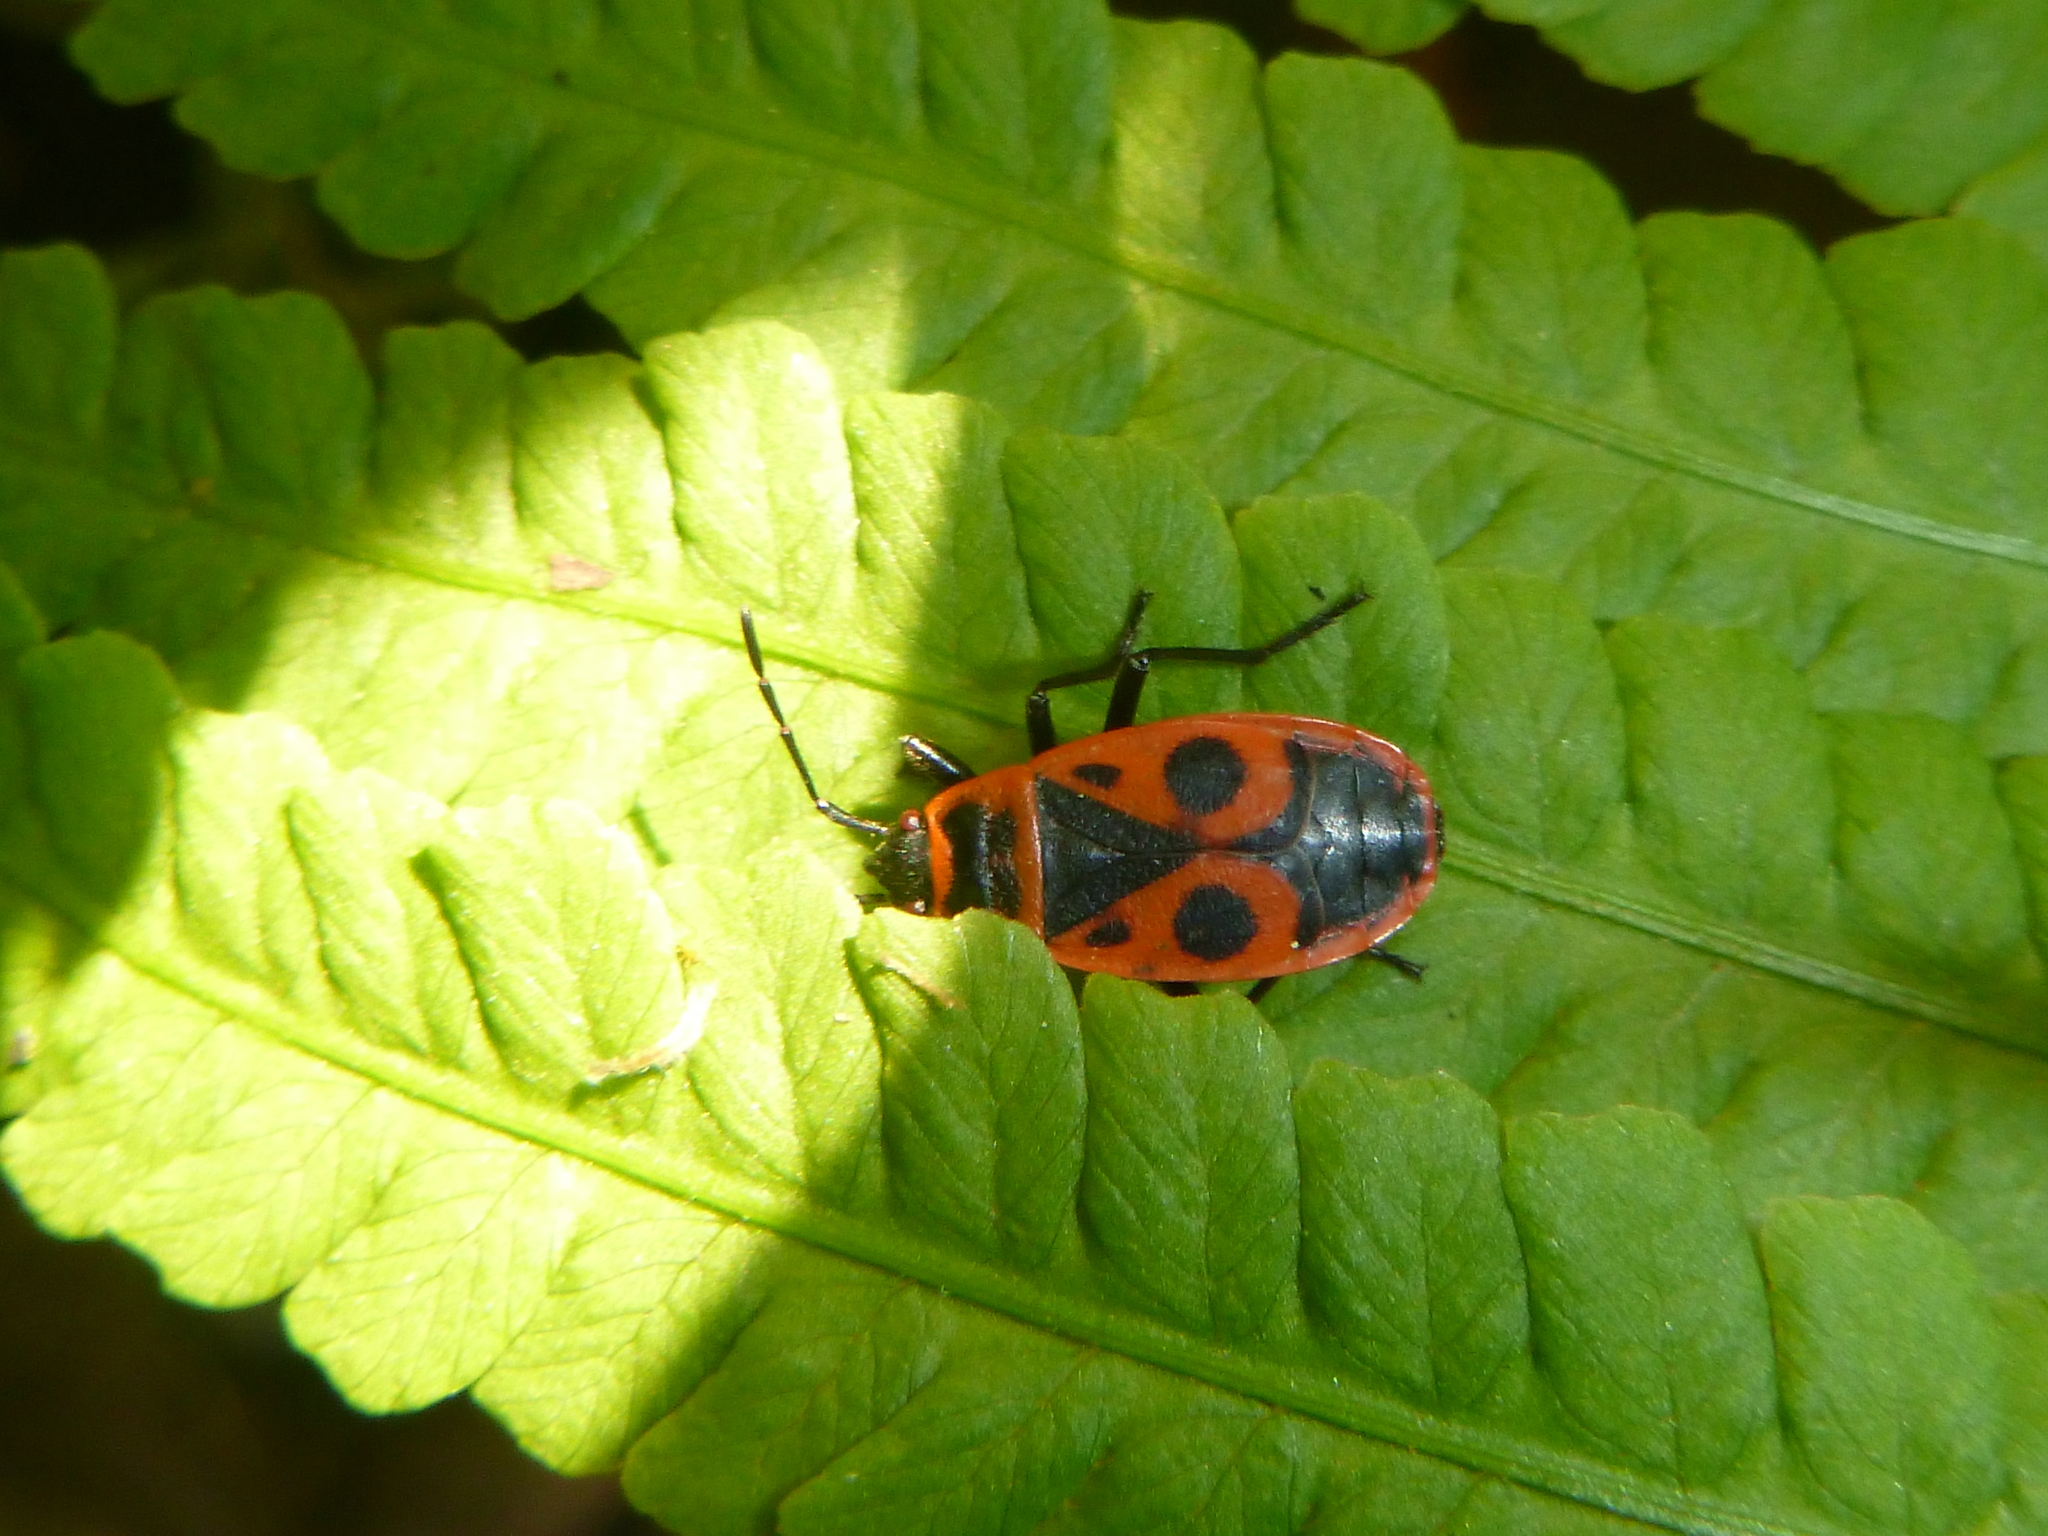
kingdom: Animalia
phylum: Arthropoda
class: Insecta
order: Hemiptera
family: Pyrrhocoridae
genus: Pyrrhocoris
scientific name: Pyrrhocoris apterus
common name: Firebug
